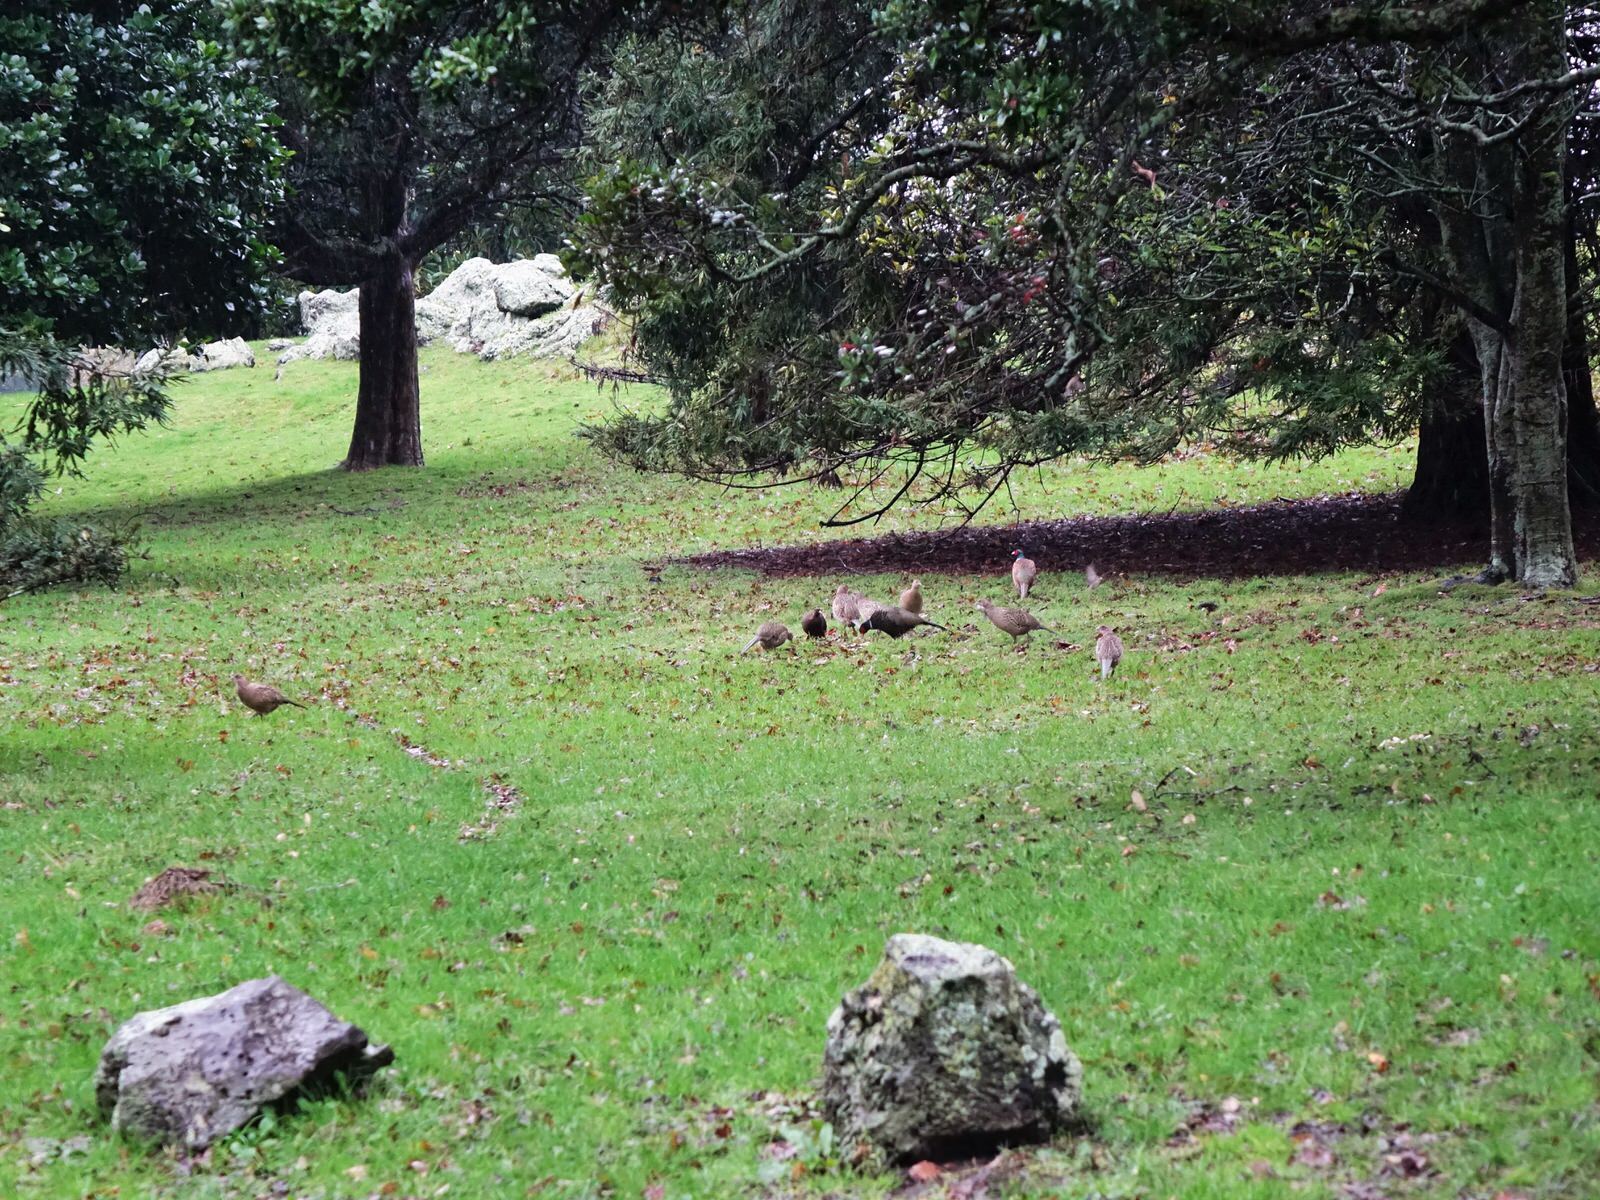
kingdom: Animalia
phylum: Chordata
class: Aves
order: Galliformes
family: Phasianidae
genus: Phasianus
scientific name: Phasianus colchicus
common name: Common pheasant
